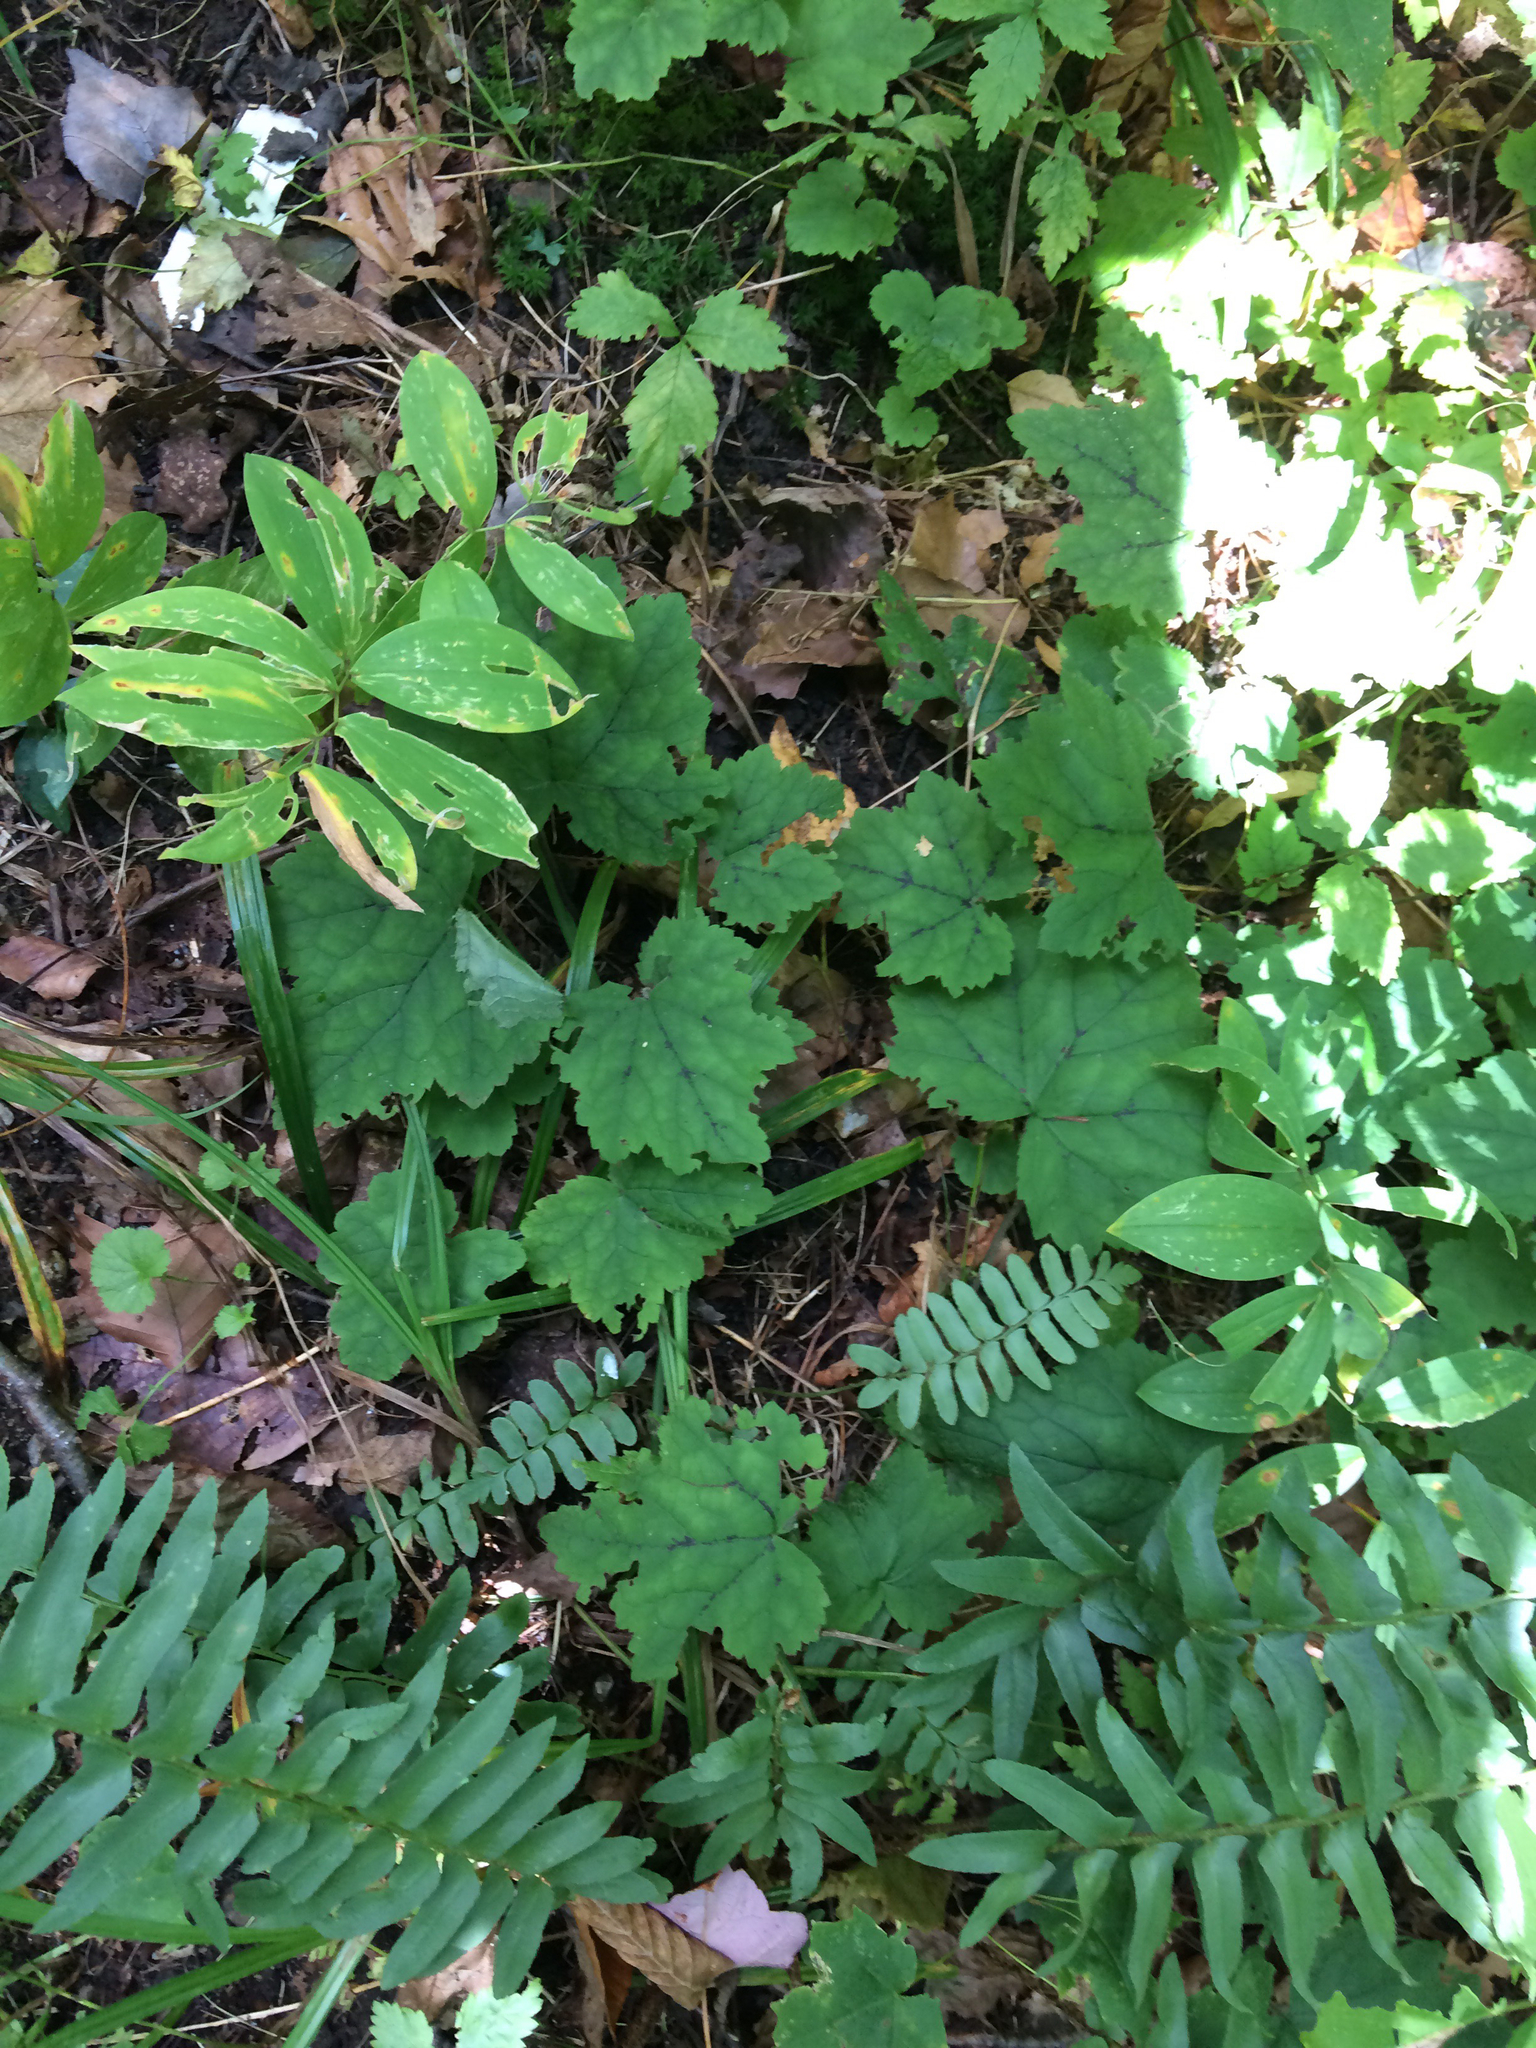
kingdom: Plantae
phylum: Tracheophyta
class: Magnoliopsida
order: Saxifragales
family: Saxifragaceae
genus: Tiarella
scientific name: Tiarella stolonifera
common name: Stoloniferous foamflower
